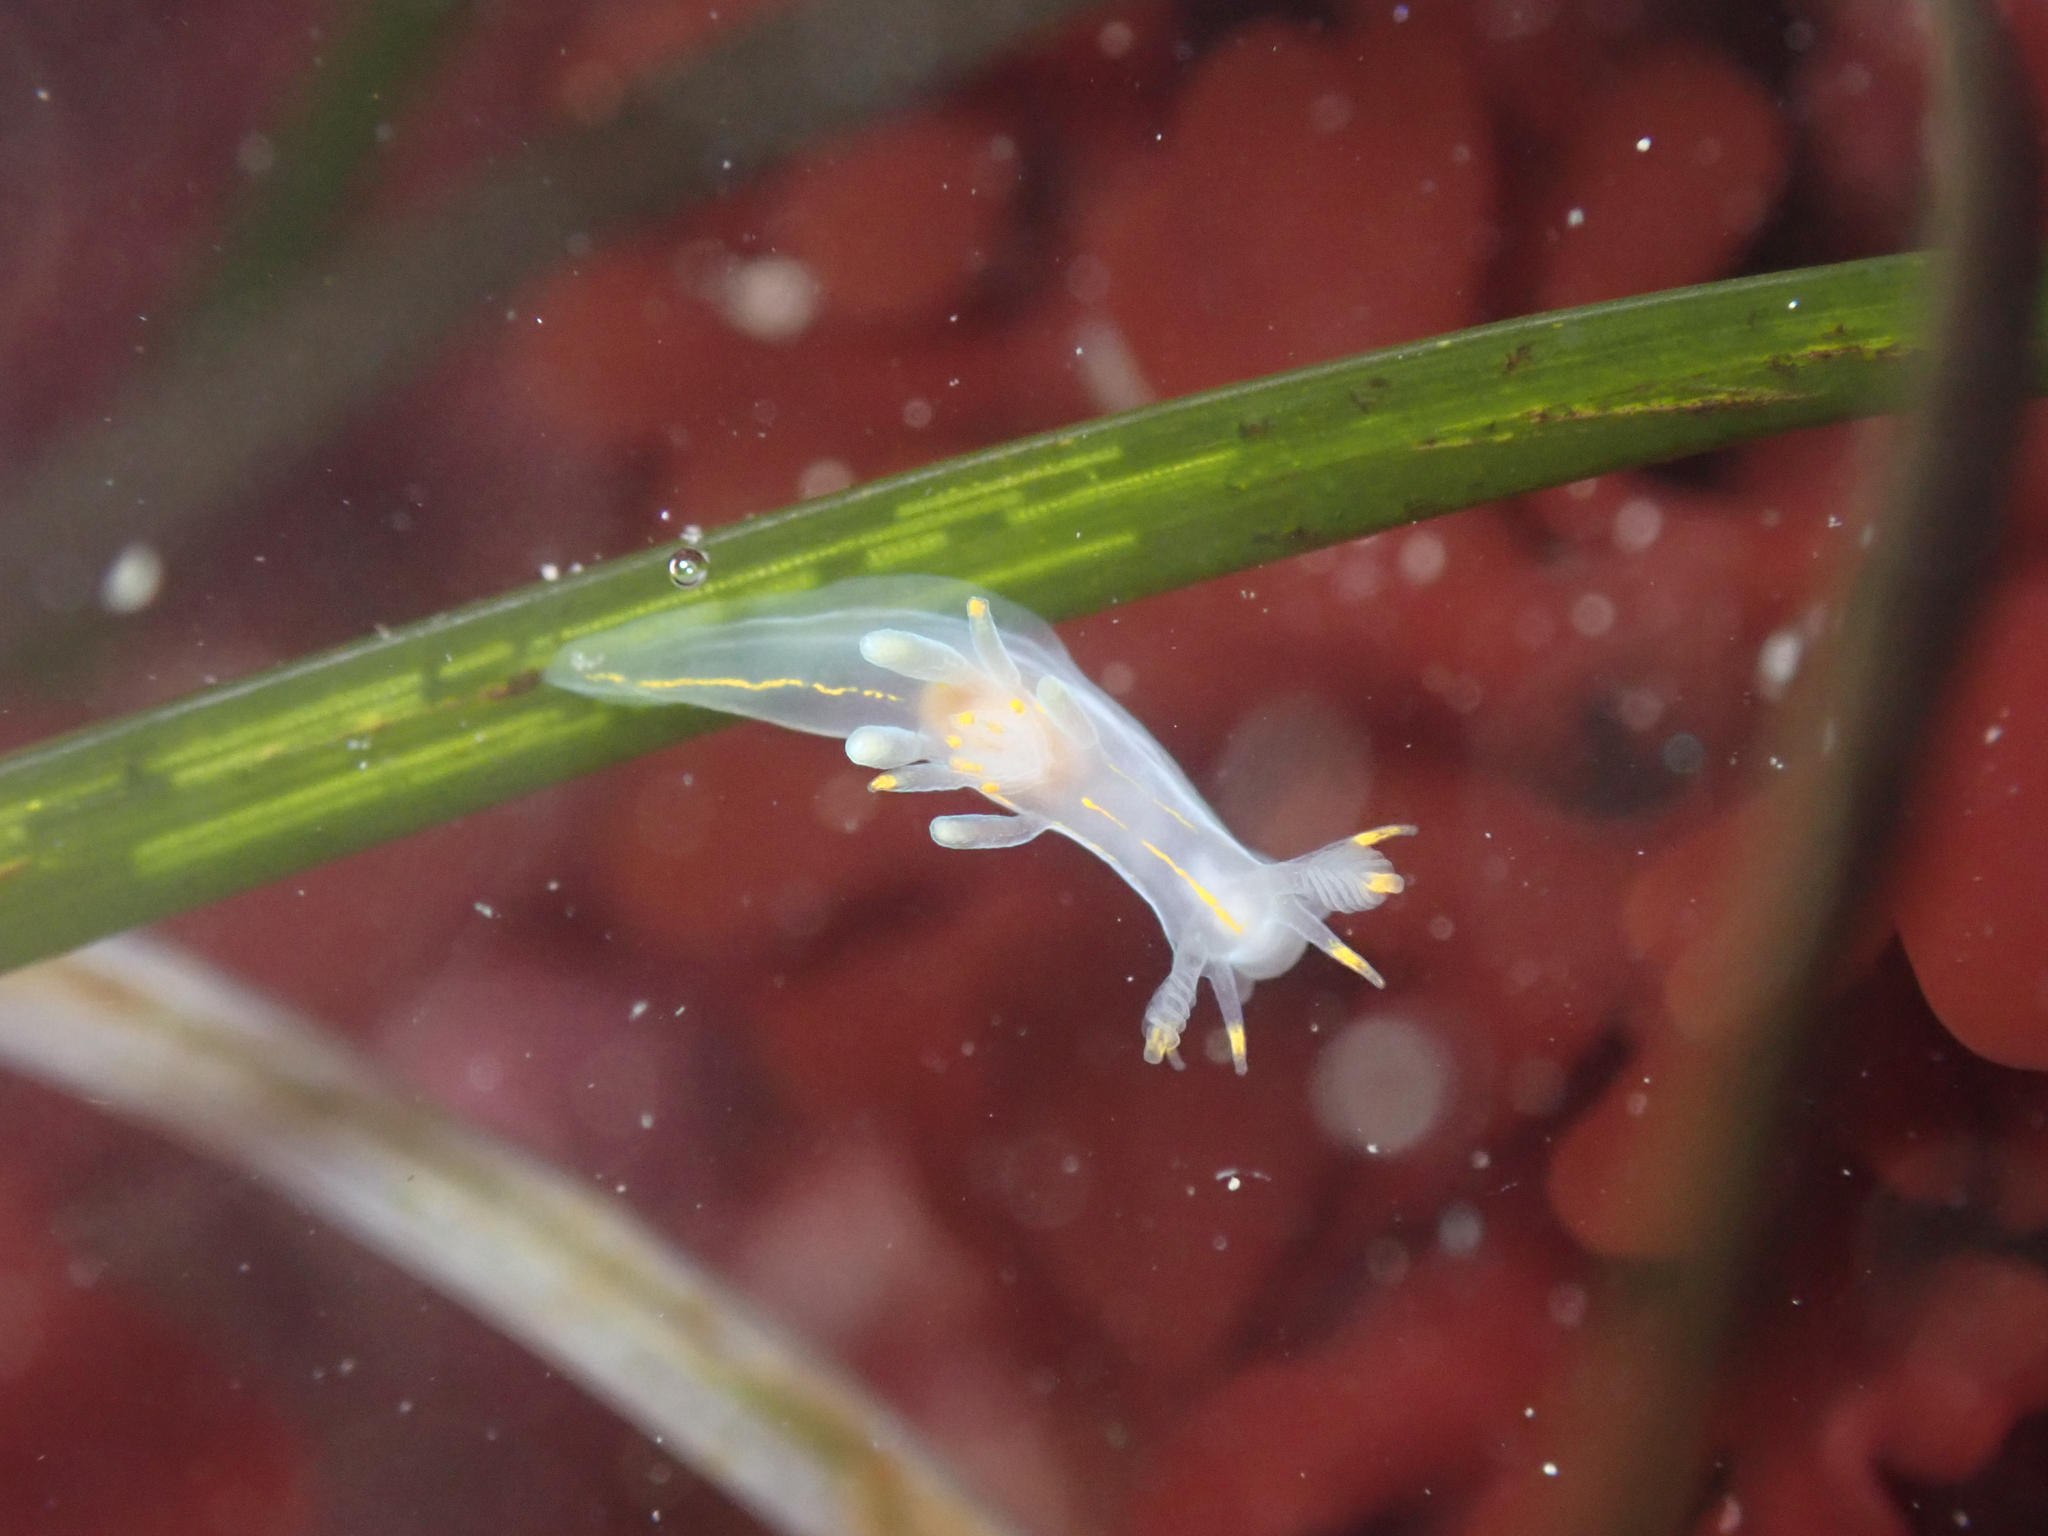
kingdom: Animalia
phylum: Mollusca
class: Gastropoda
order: Nudibranchia
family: Goniodorididae
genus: Ancula
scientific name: Ancula pacifica
